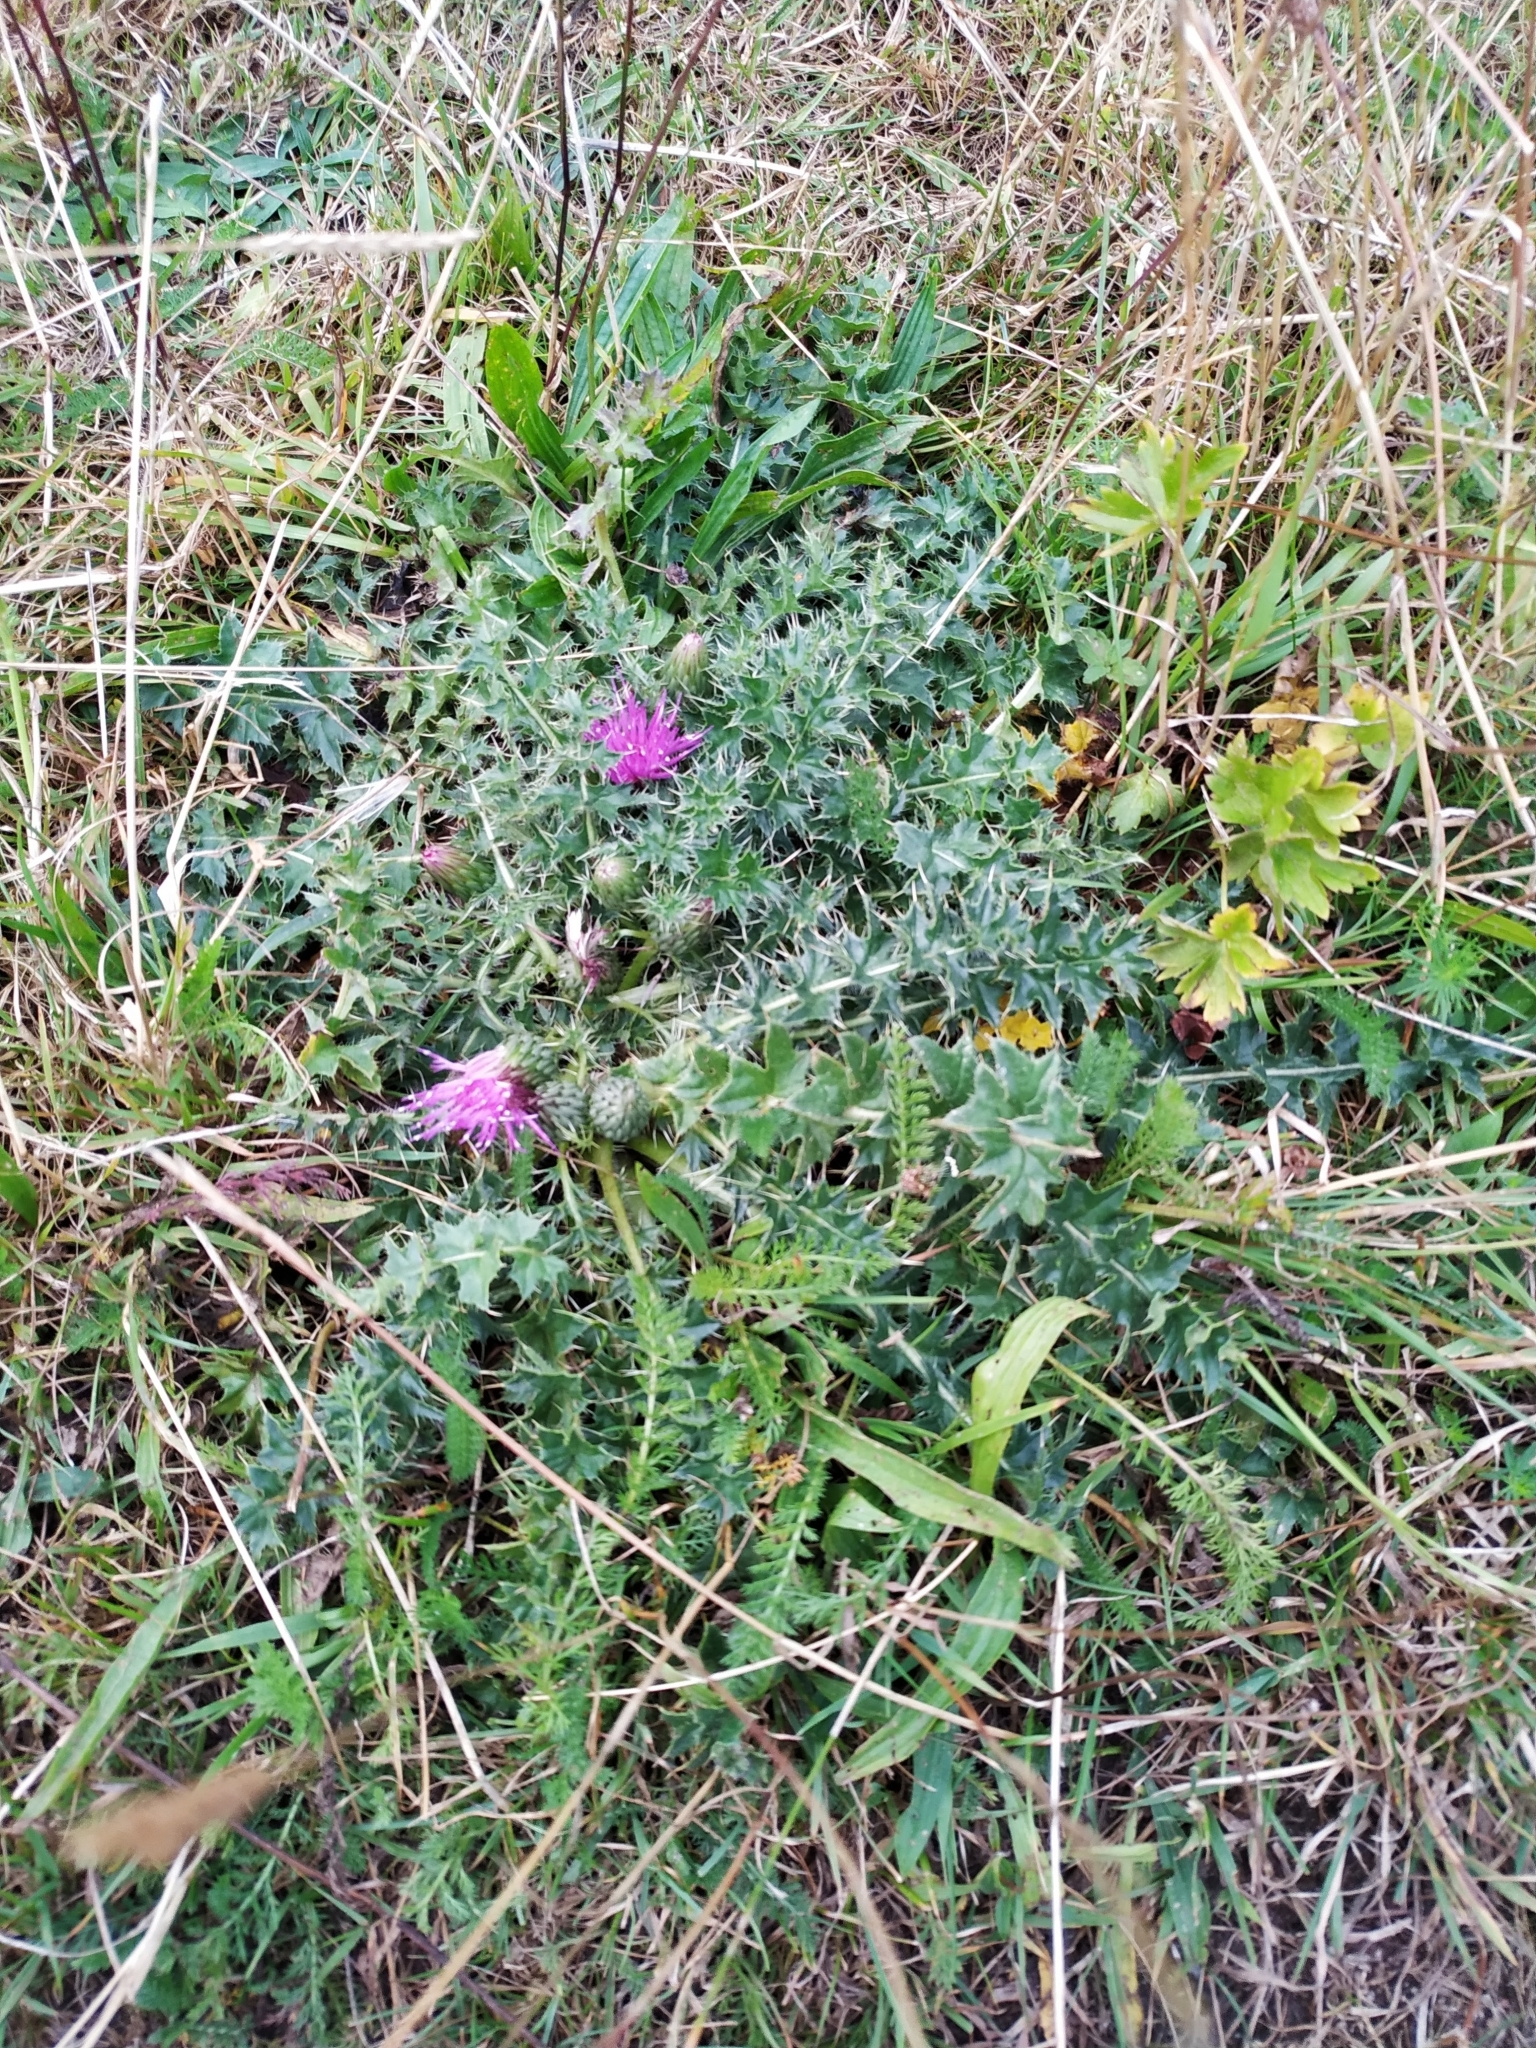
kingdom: Plantae
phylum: Tracheophyta
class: Magnoliopsida
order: Asterales
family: Asteraceae
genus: Cirsium
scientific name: Cirsium acaulon
